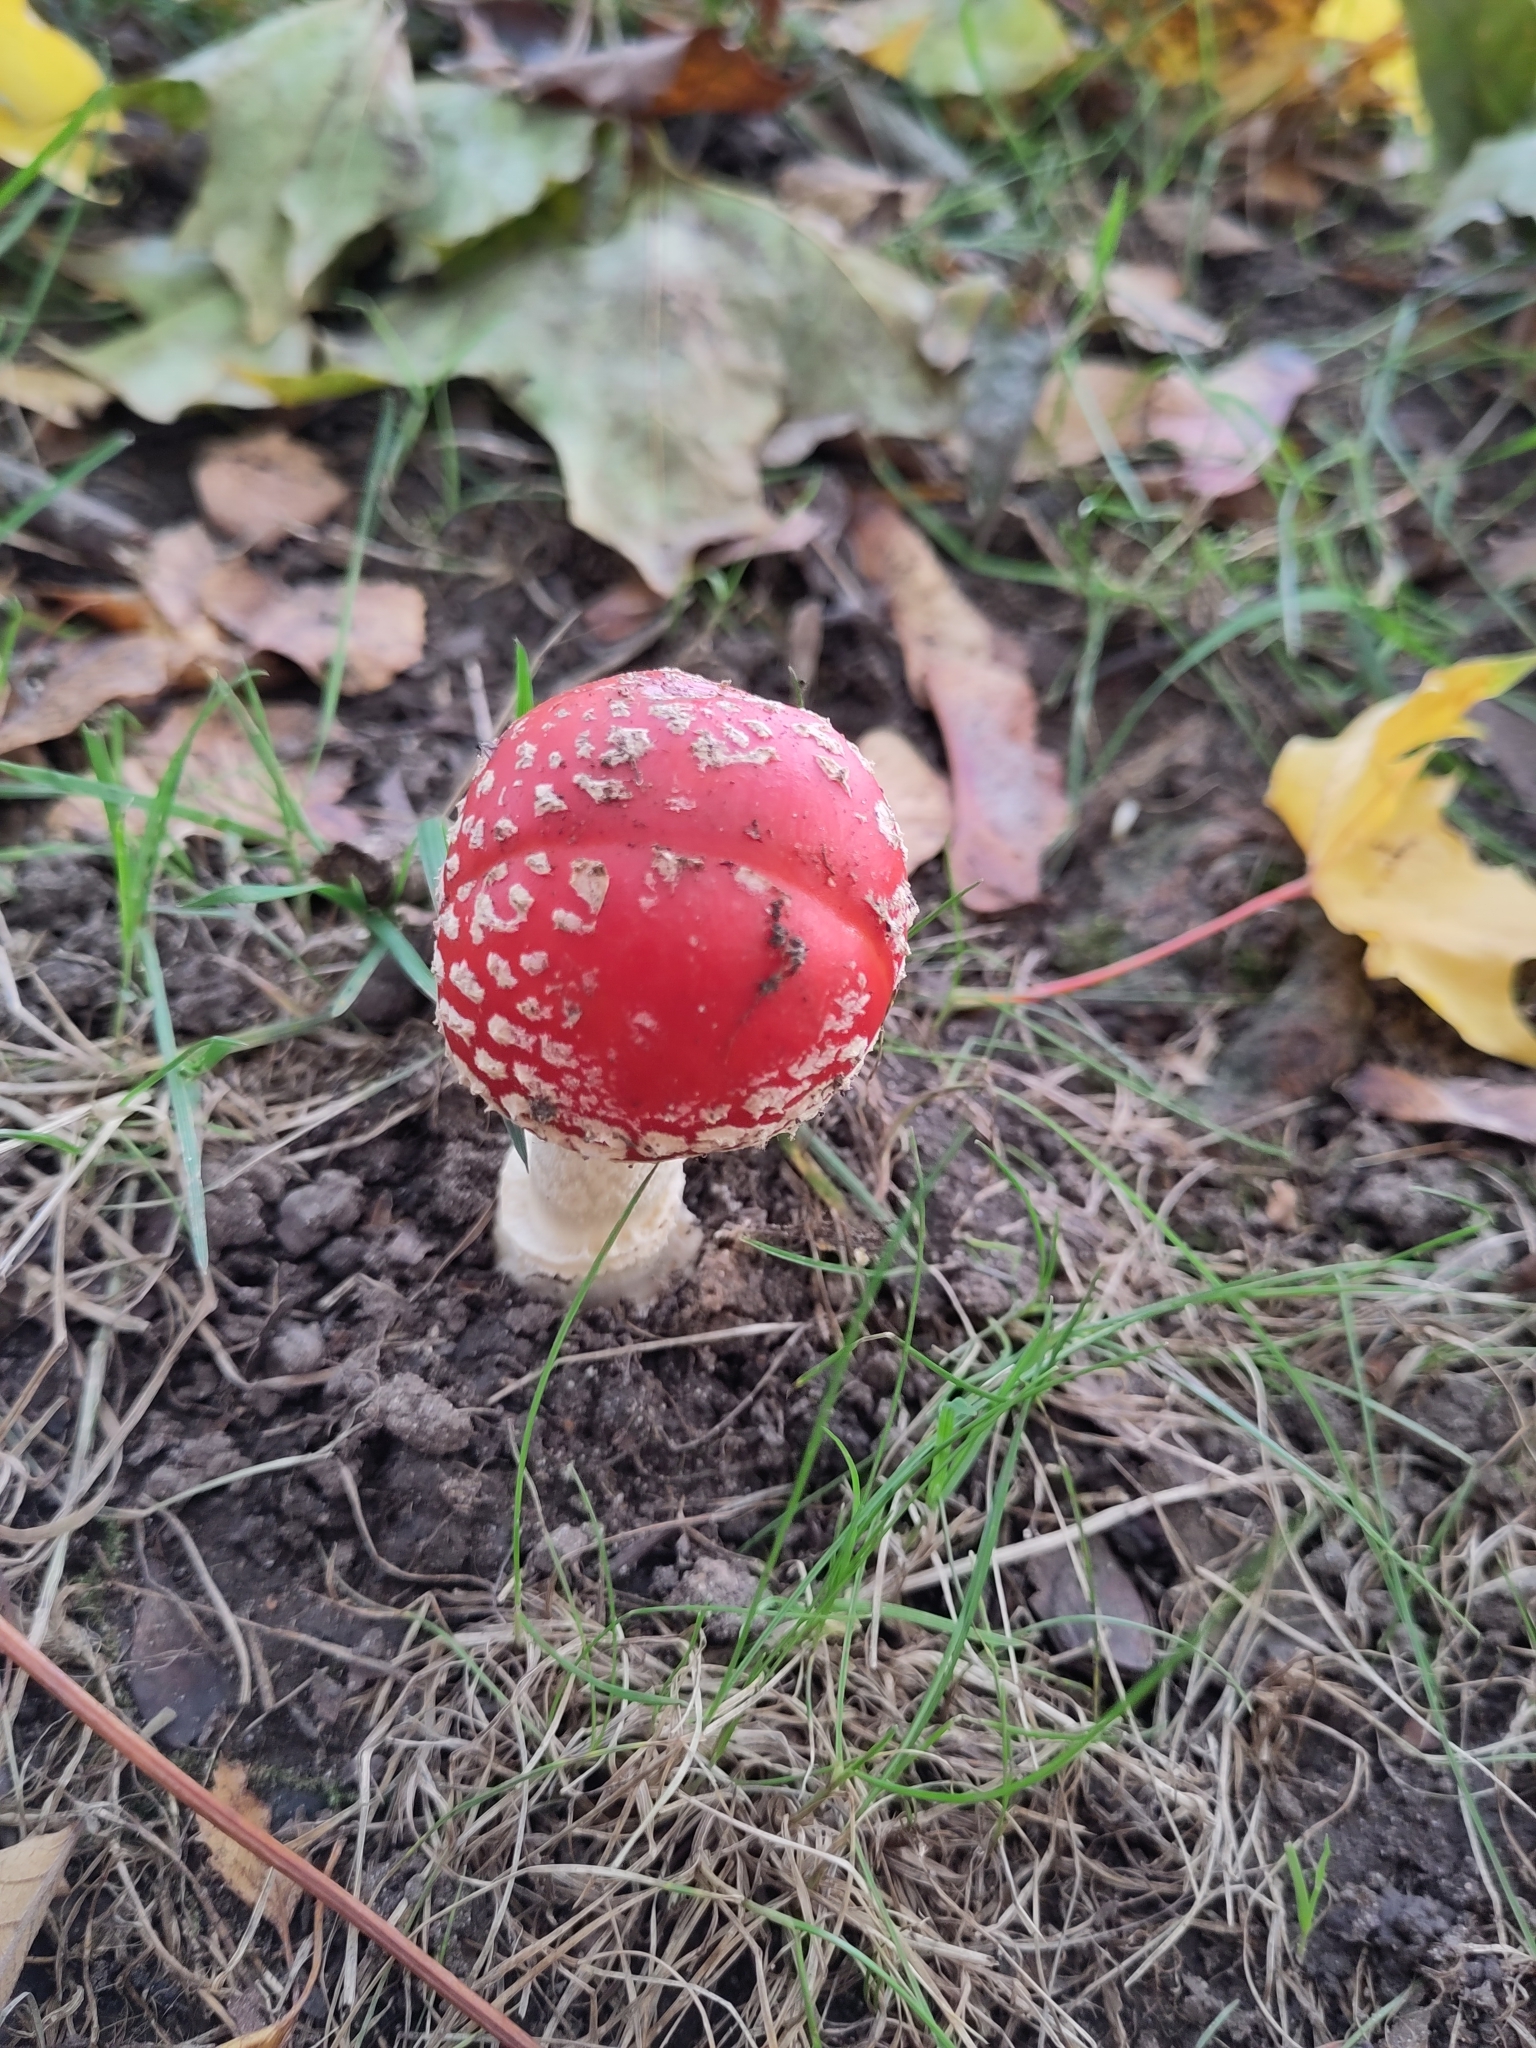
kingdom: Fungi
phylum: Basidiomycota
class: Agaricomycetes
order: Agaricales
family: Amanitaceae
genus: Amanita
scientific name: Amanita muscaria
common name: Fly agaric
